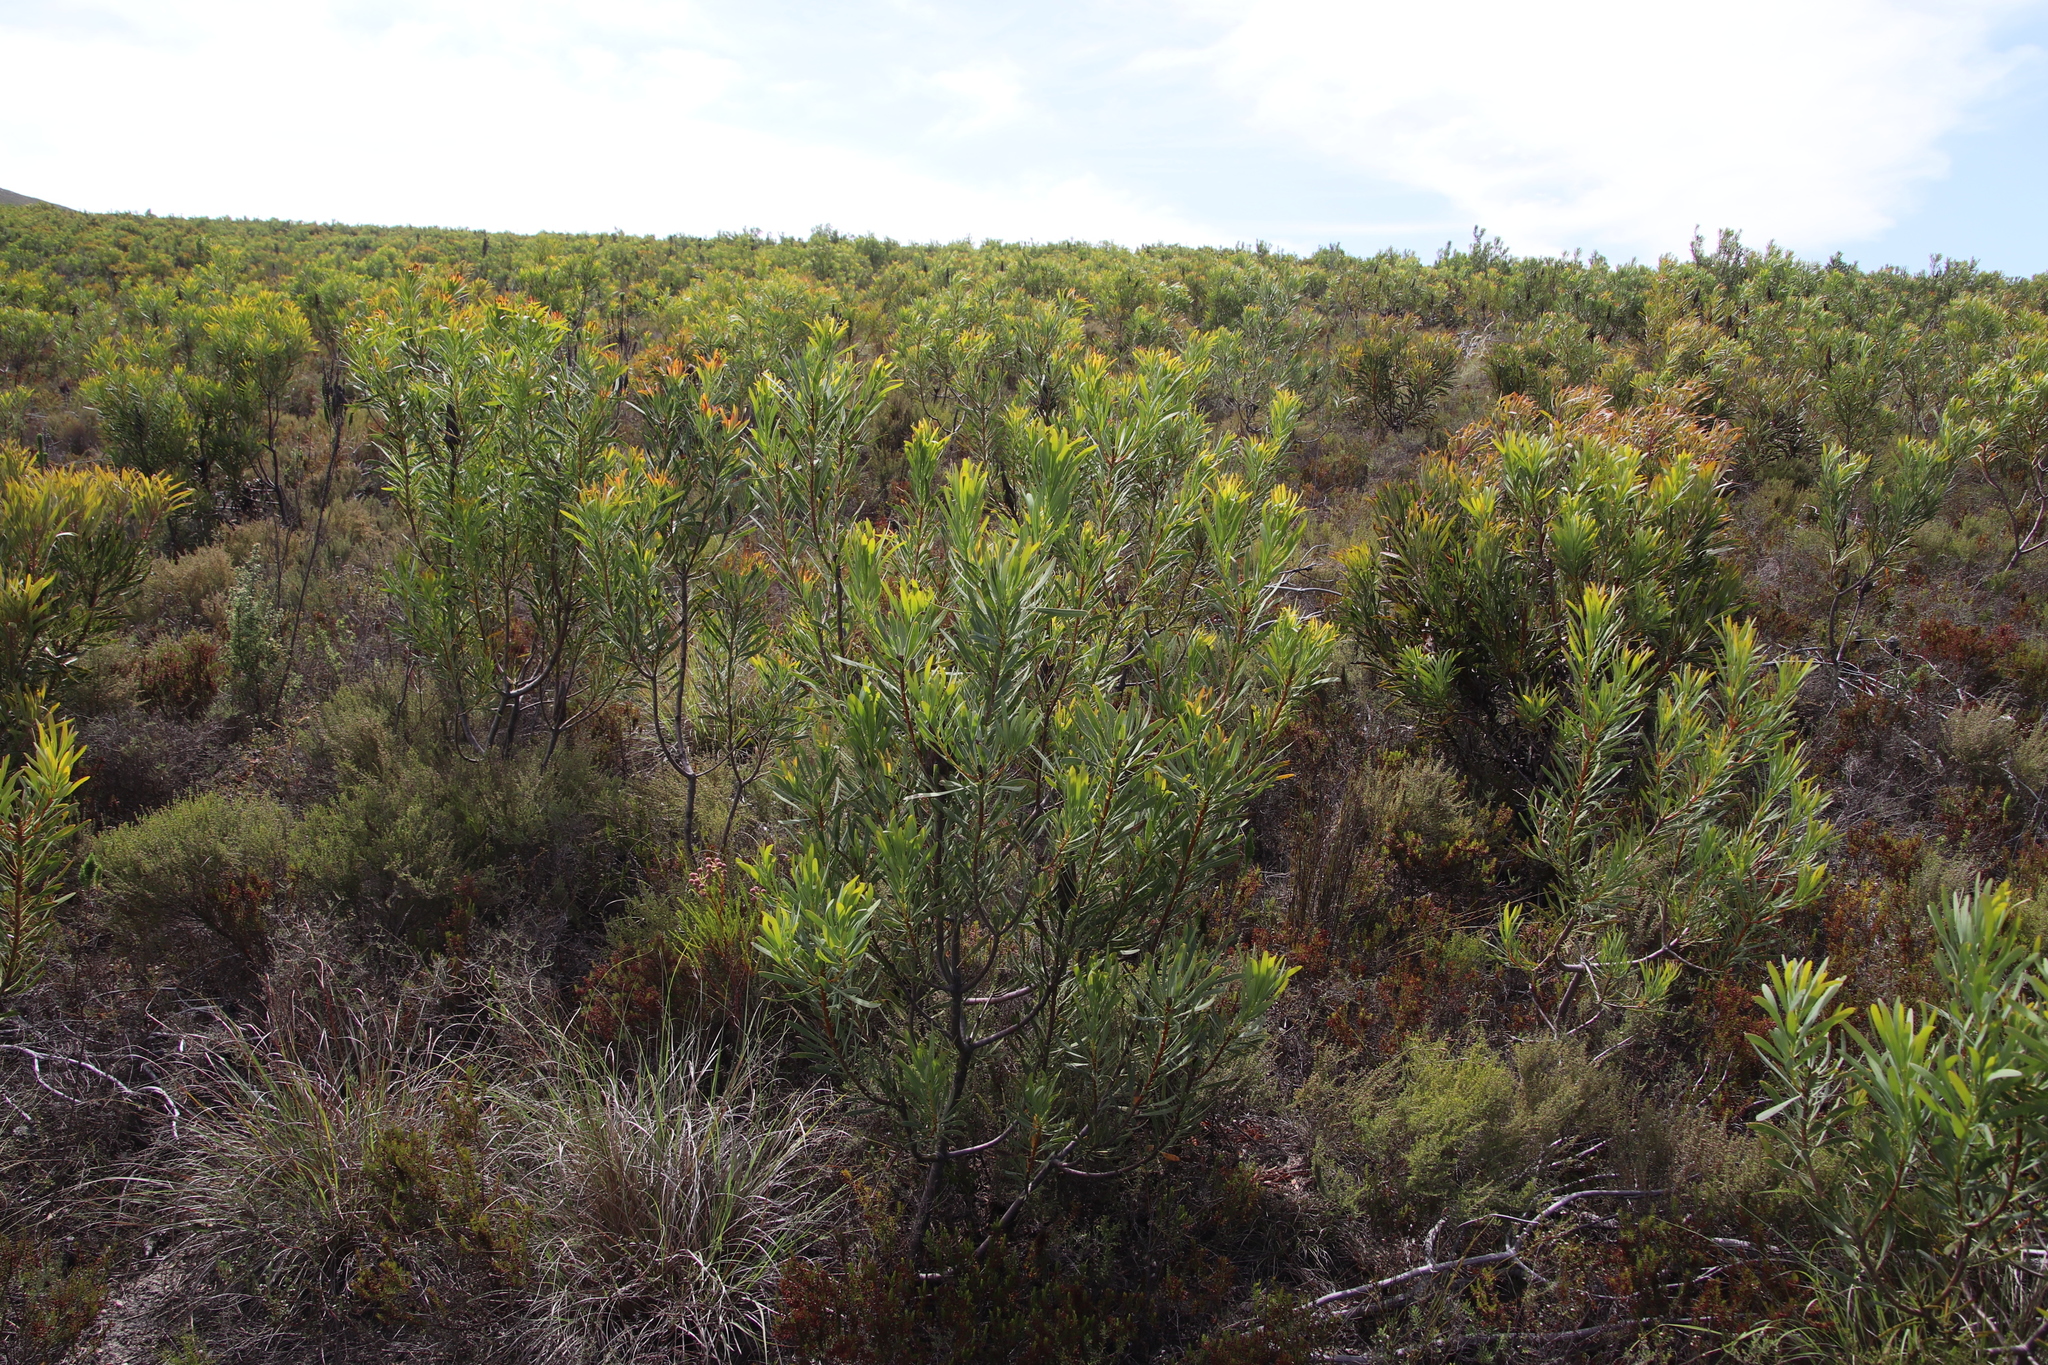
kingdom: Plantae
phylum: Tracheophyta
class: Magnoliopsida
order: Proteales
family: Proteaceae
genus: Protea
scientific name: Protea repens
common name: Sugarbush
